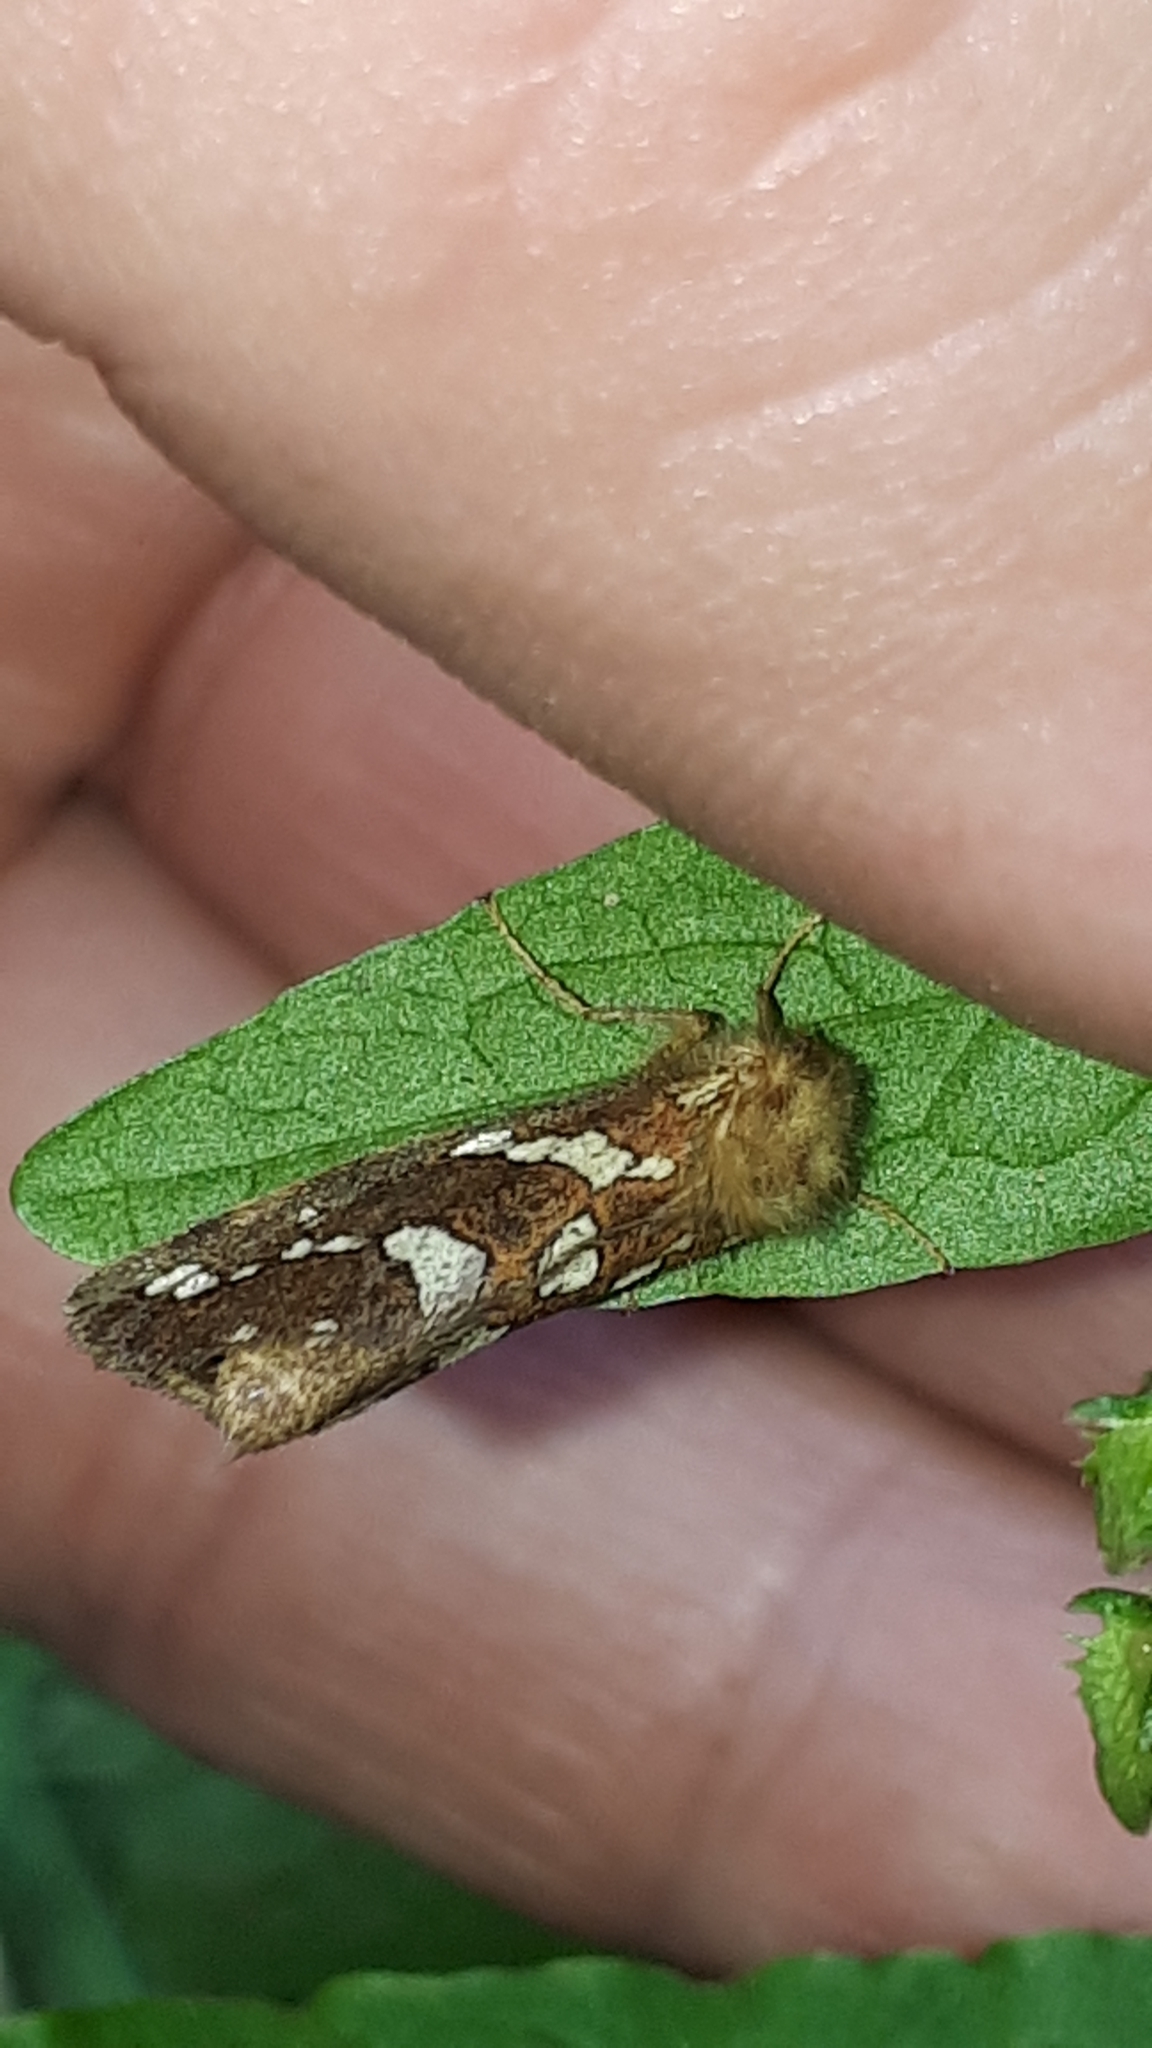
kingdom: Animalia
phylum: Arthropoda
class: Insecta
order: Lepidoptera
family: Hepialidae
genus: Phymatopus
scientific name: Phymatopus hecta
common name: Gold swift
